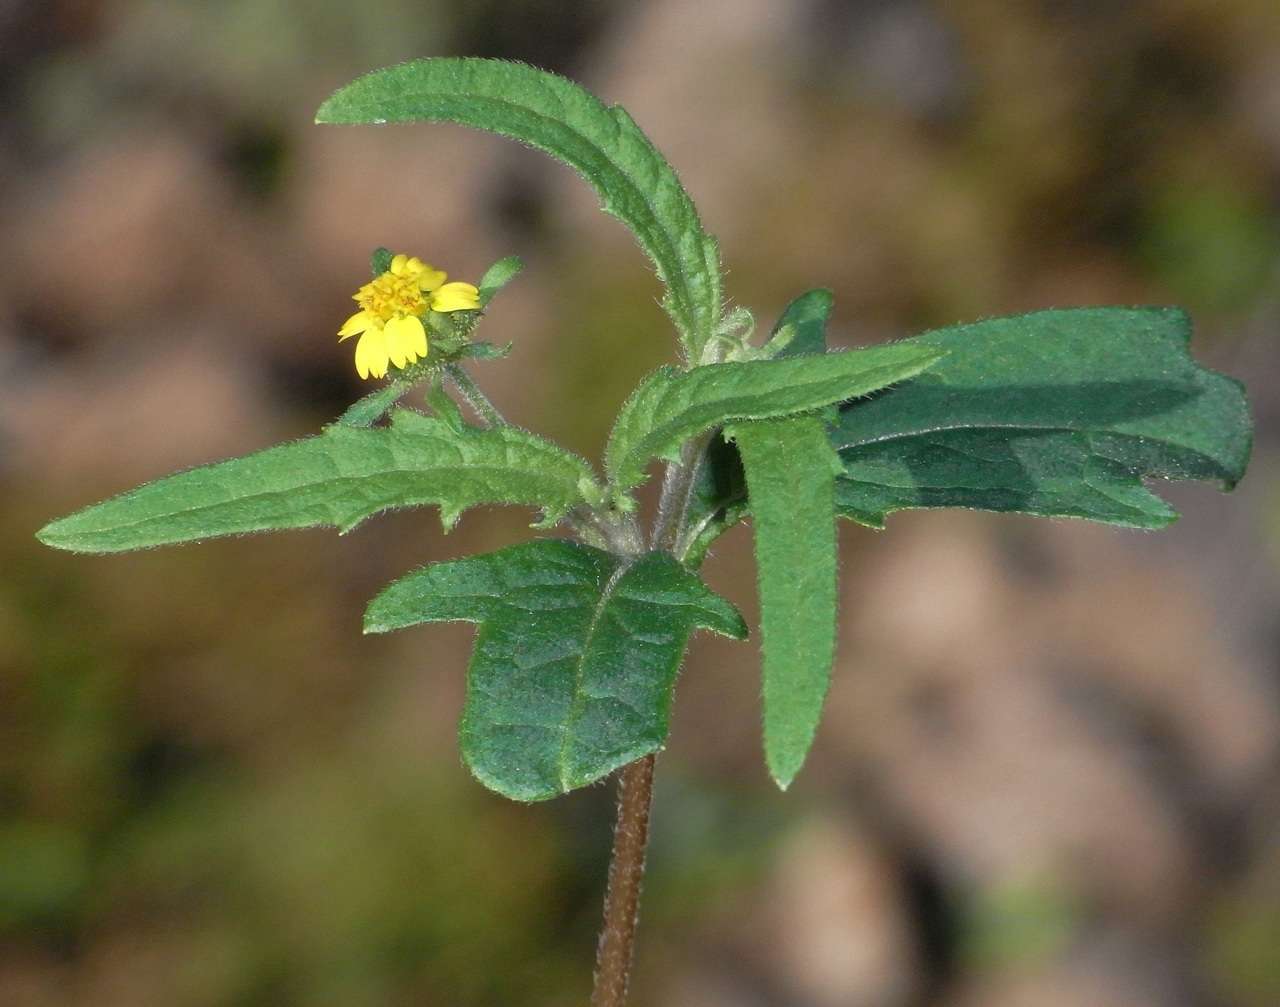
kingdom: Plantae
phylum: Tracheophyta
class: Magnoliopsida
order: Asterales
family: Asteraceae
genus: Sigesbeckia
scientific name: Sigesbeckia australiensis
